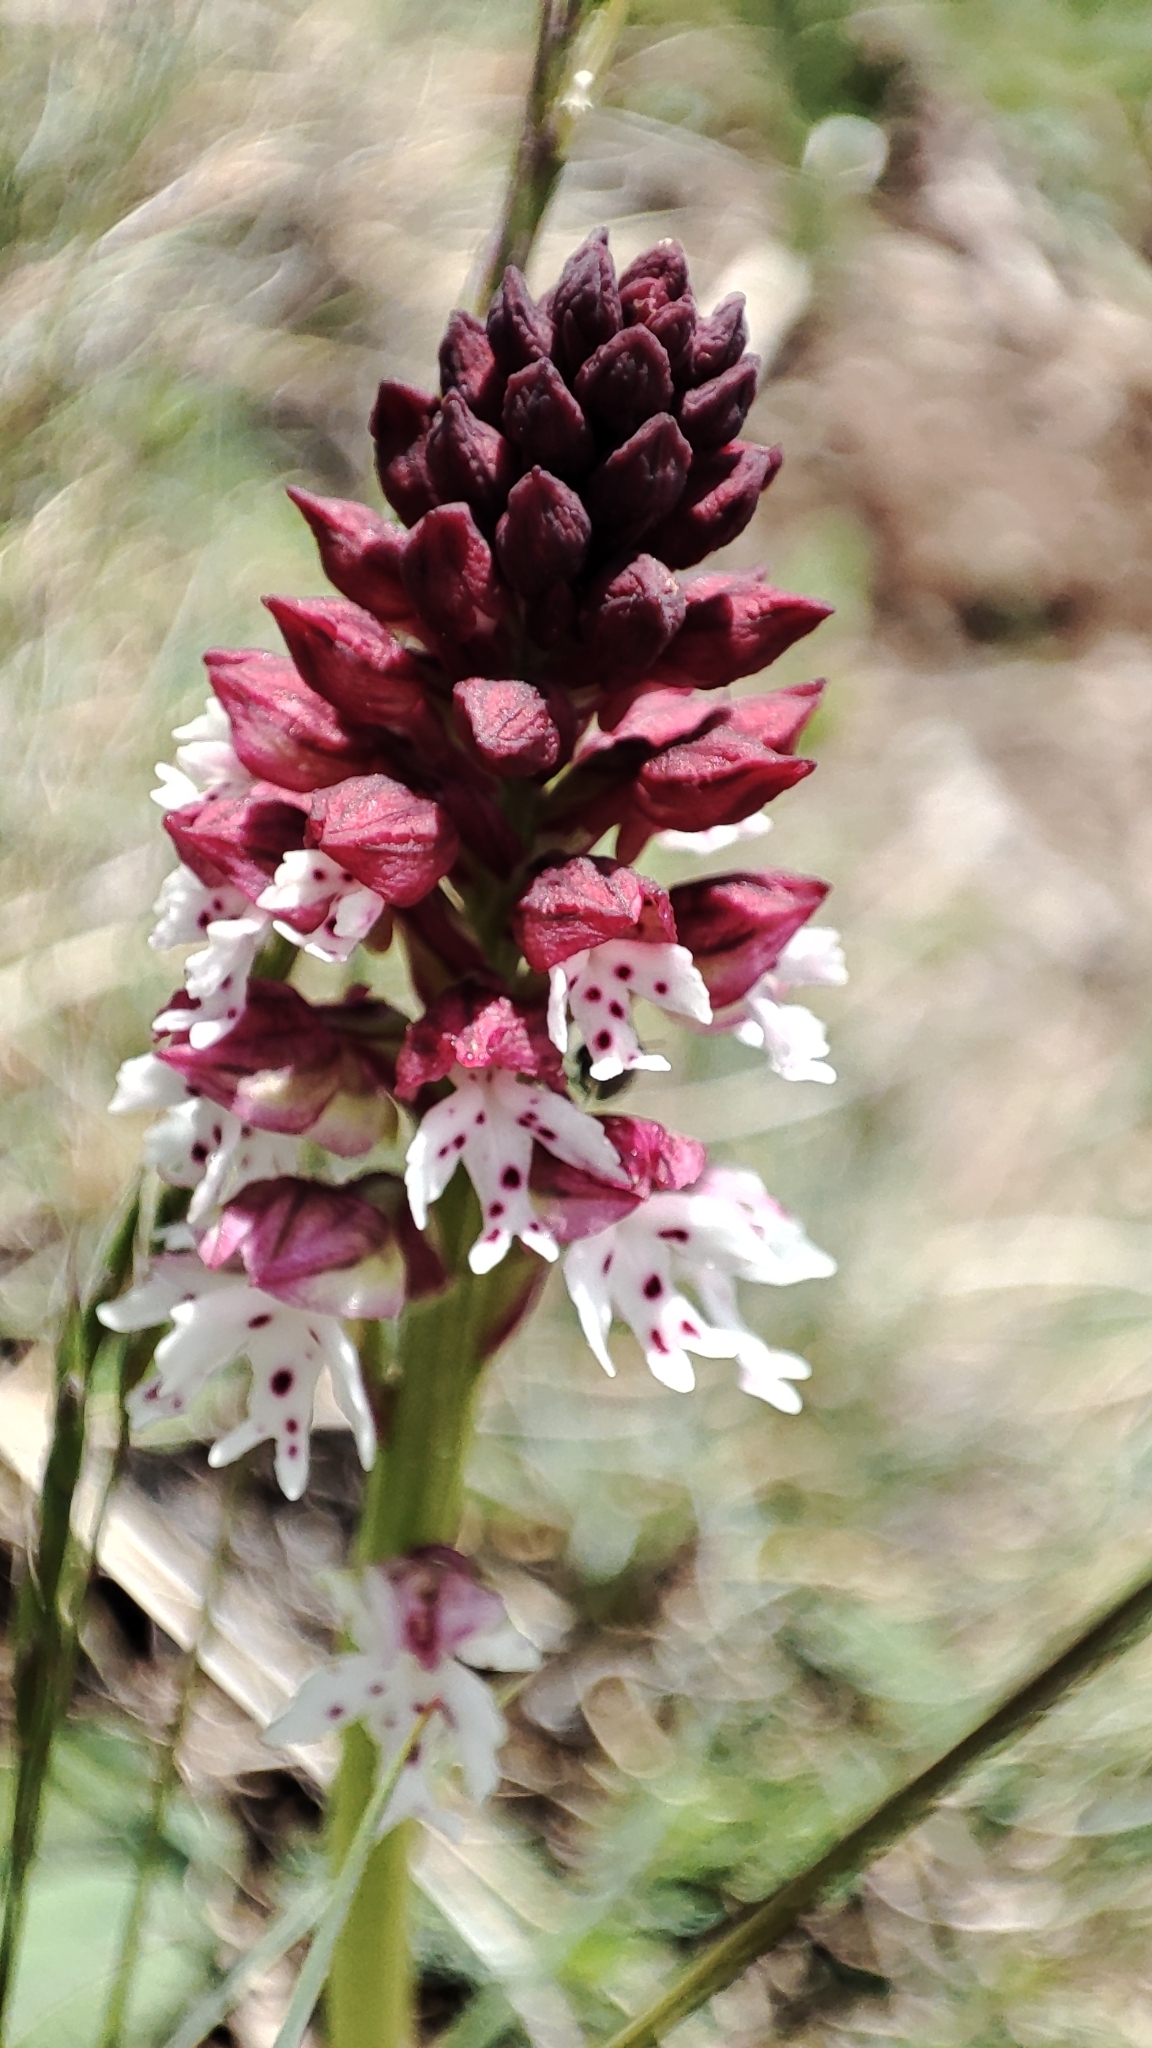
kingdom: Plantae
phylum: Tracheophyta
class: Liliopsida
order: Asparagales
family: Orchidaceae
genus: Neotinea
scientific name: Neotinea ustulata
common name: Burnt orchid
